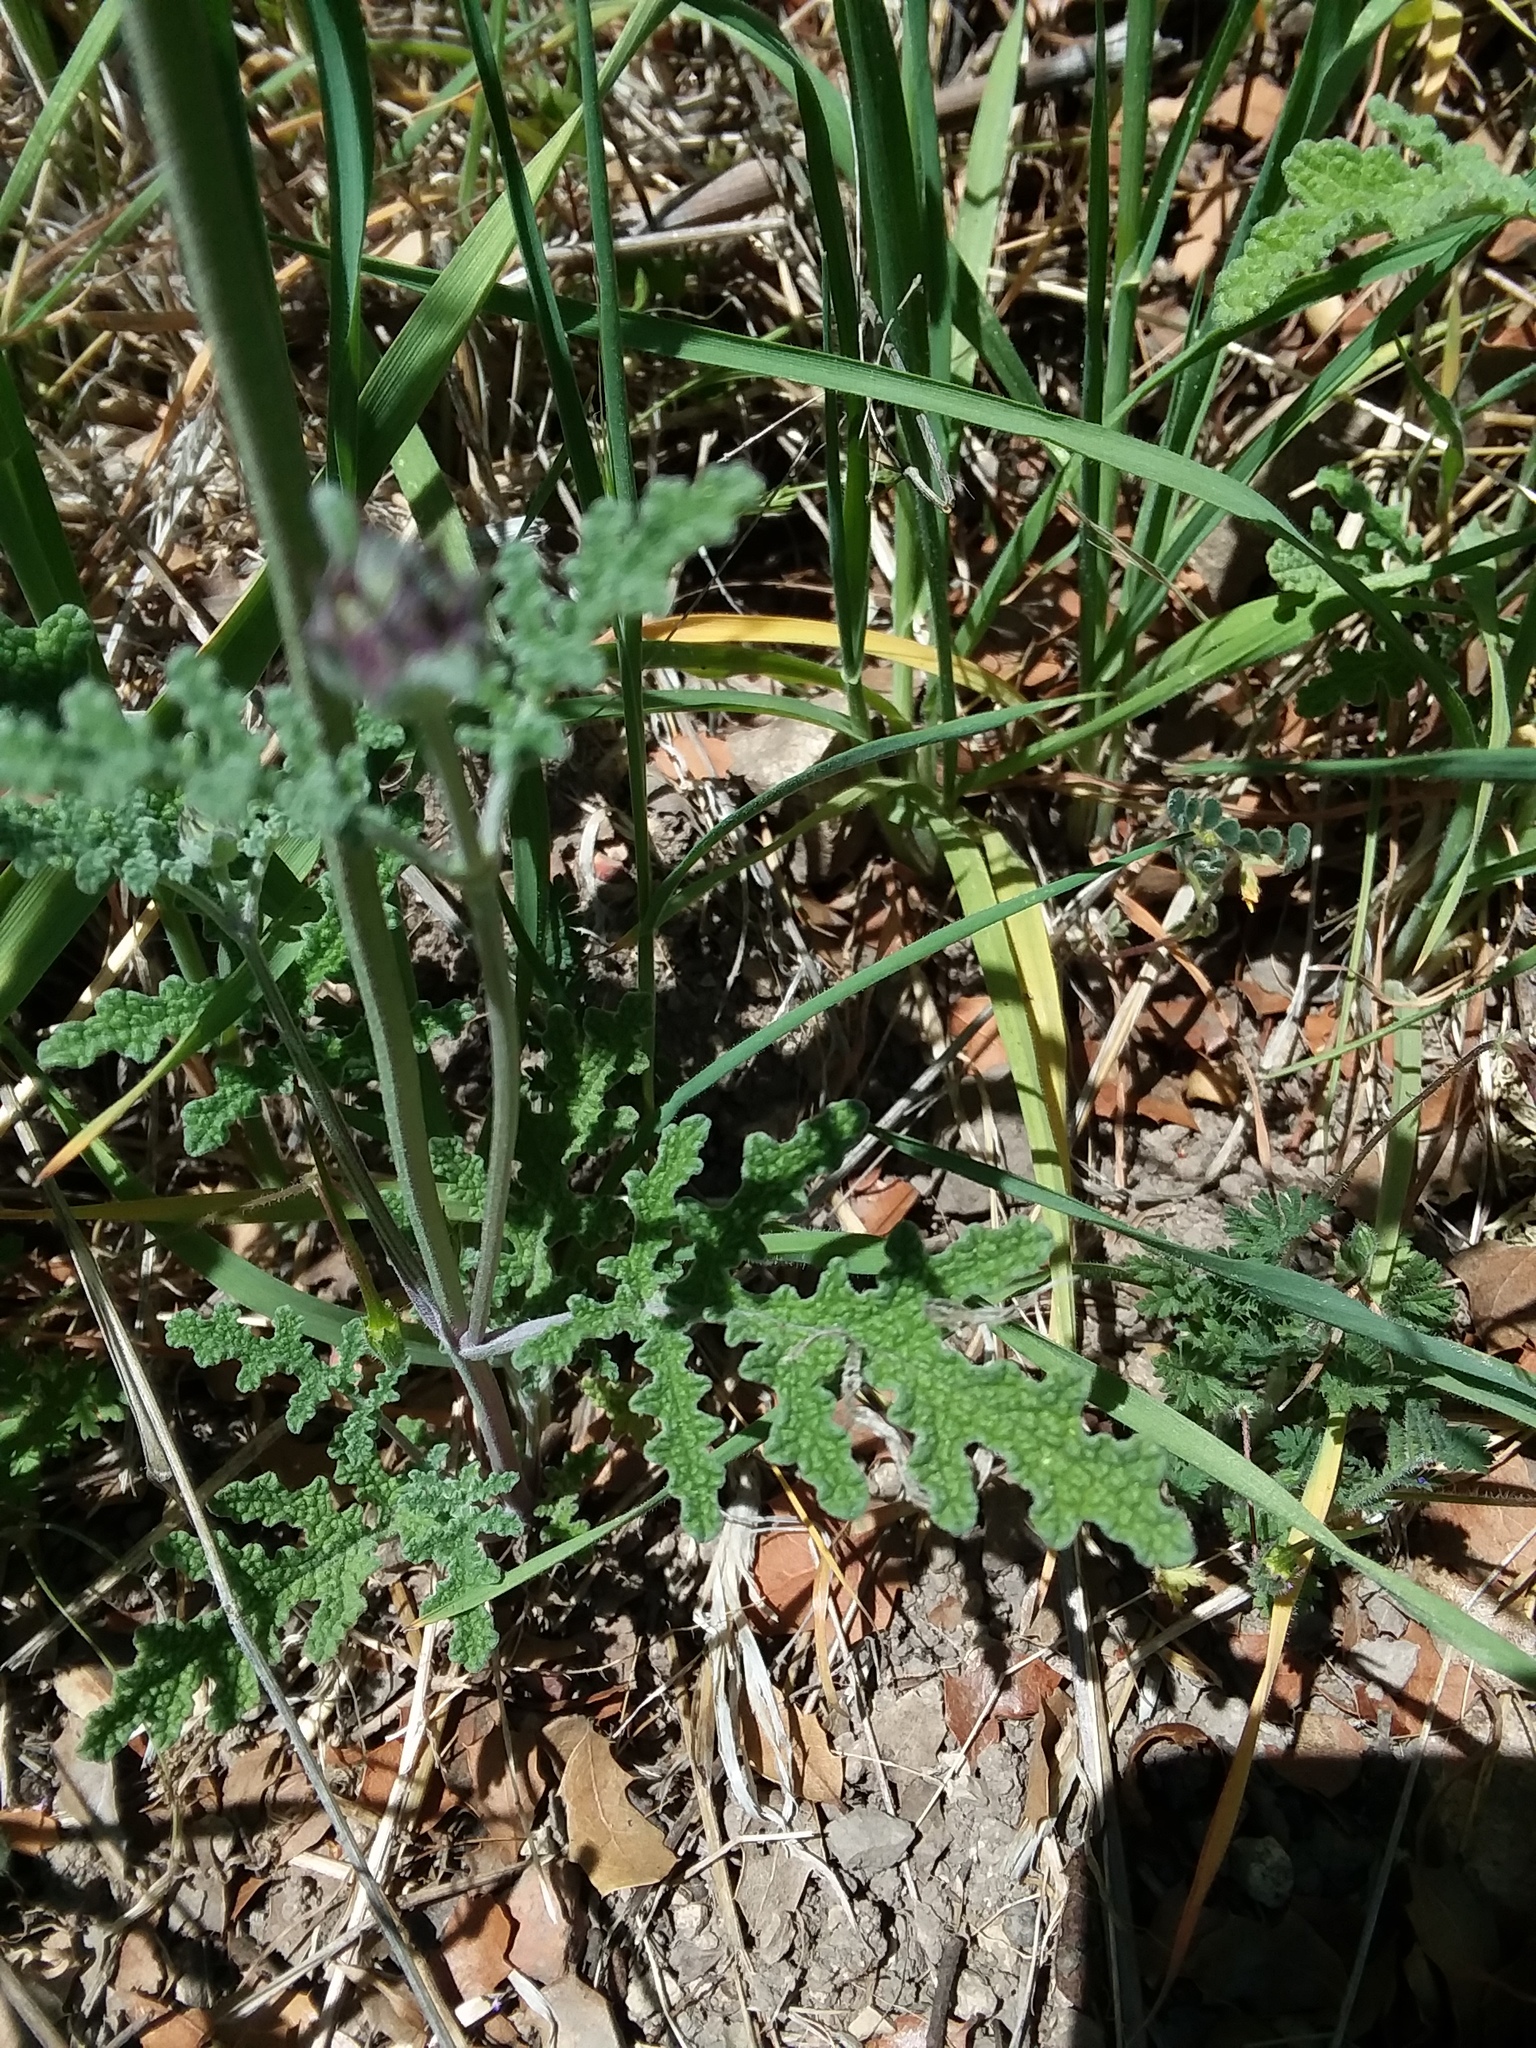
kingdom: Plantae
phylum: Tracheophyta
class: Magnoliopsida
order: Lamiales
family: Lamiaceae
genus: Salvia
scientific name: Salvia columbariae
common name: Chia
